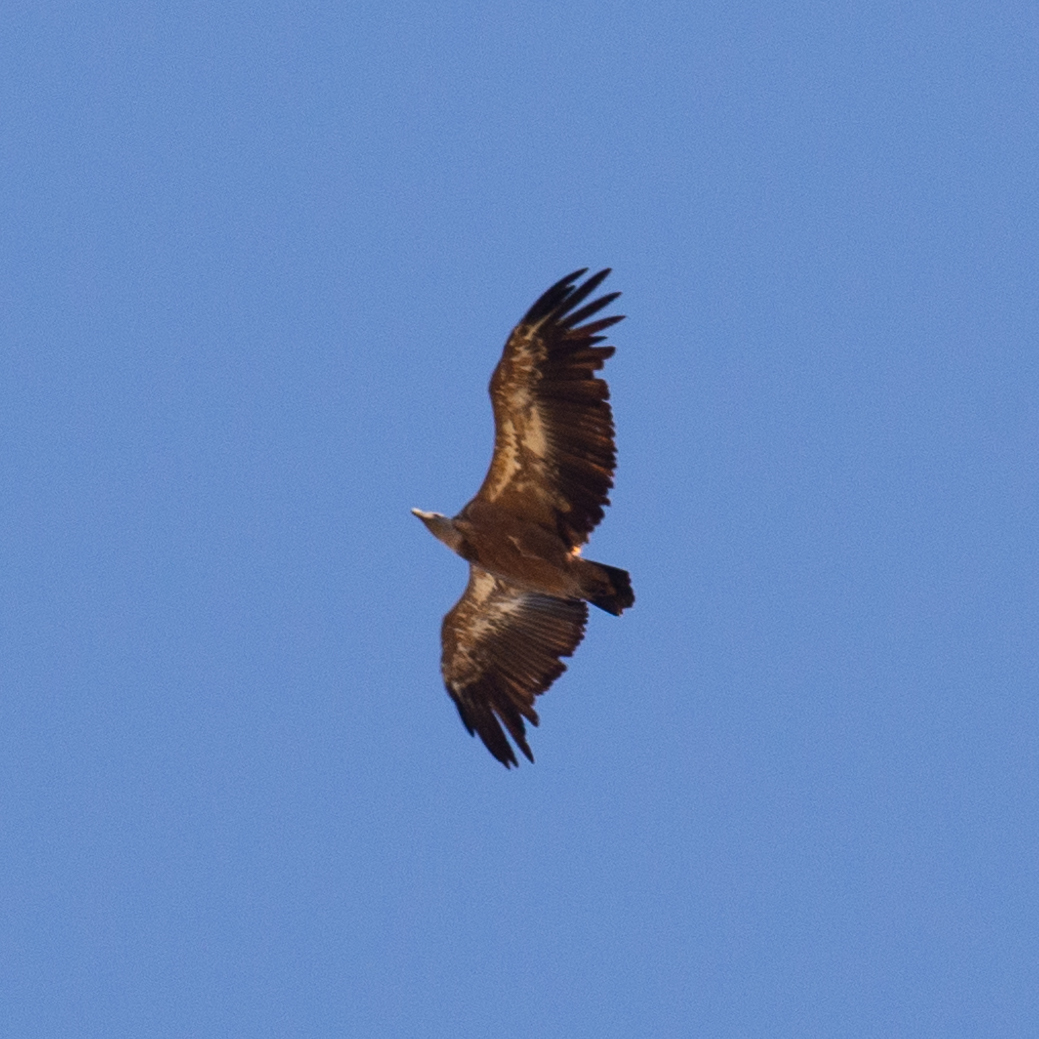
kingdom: Animalia
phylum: Chordata
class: Aves
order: Accipitriformes
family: Accipitridae
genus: Gyps
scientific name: Gyps fulvus
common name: Griffon vulture
